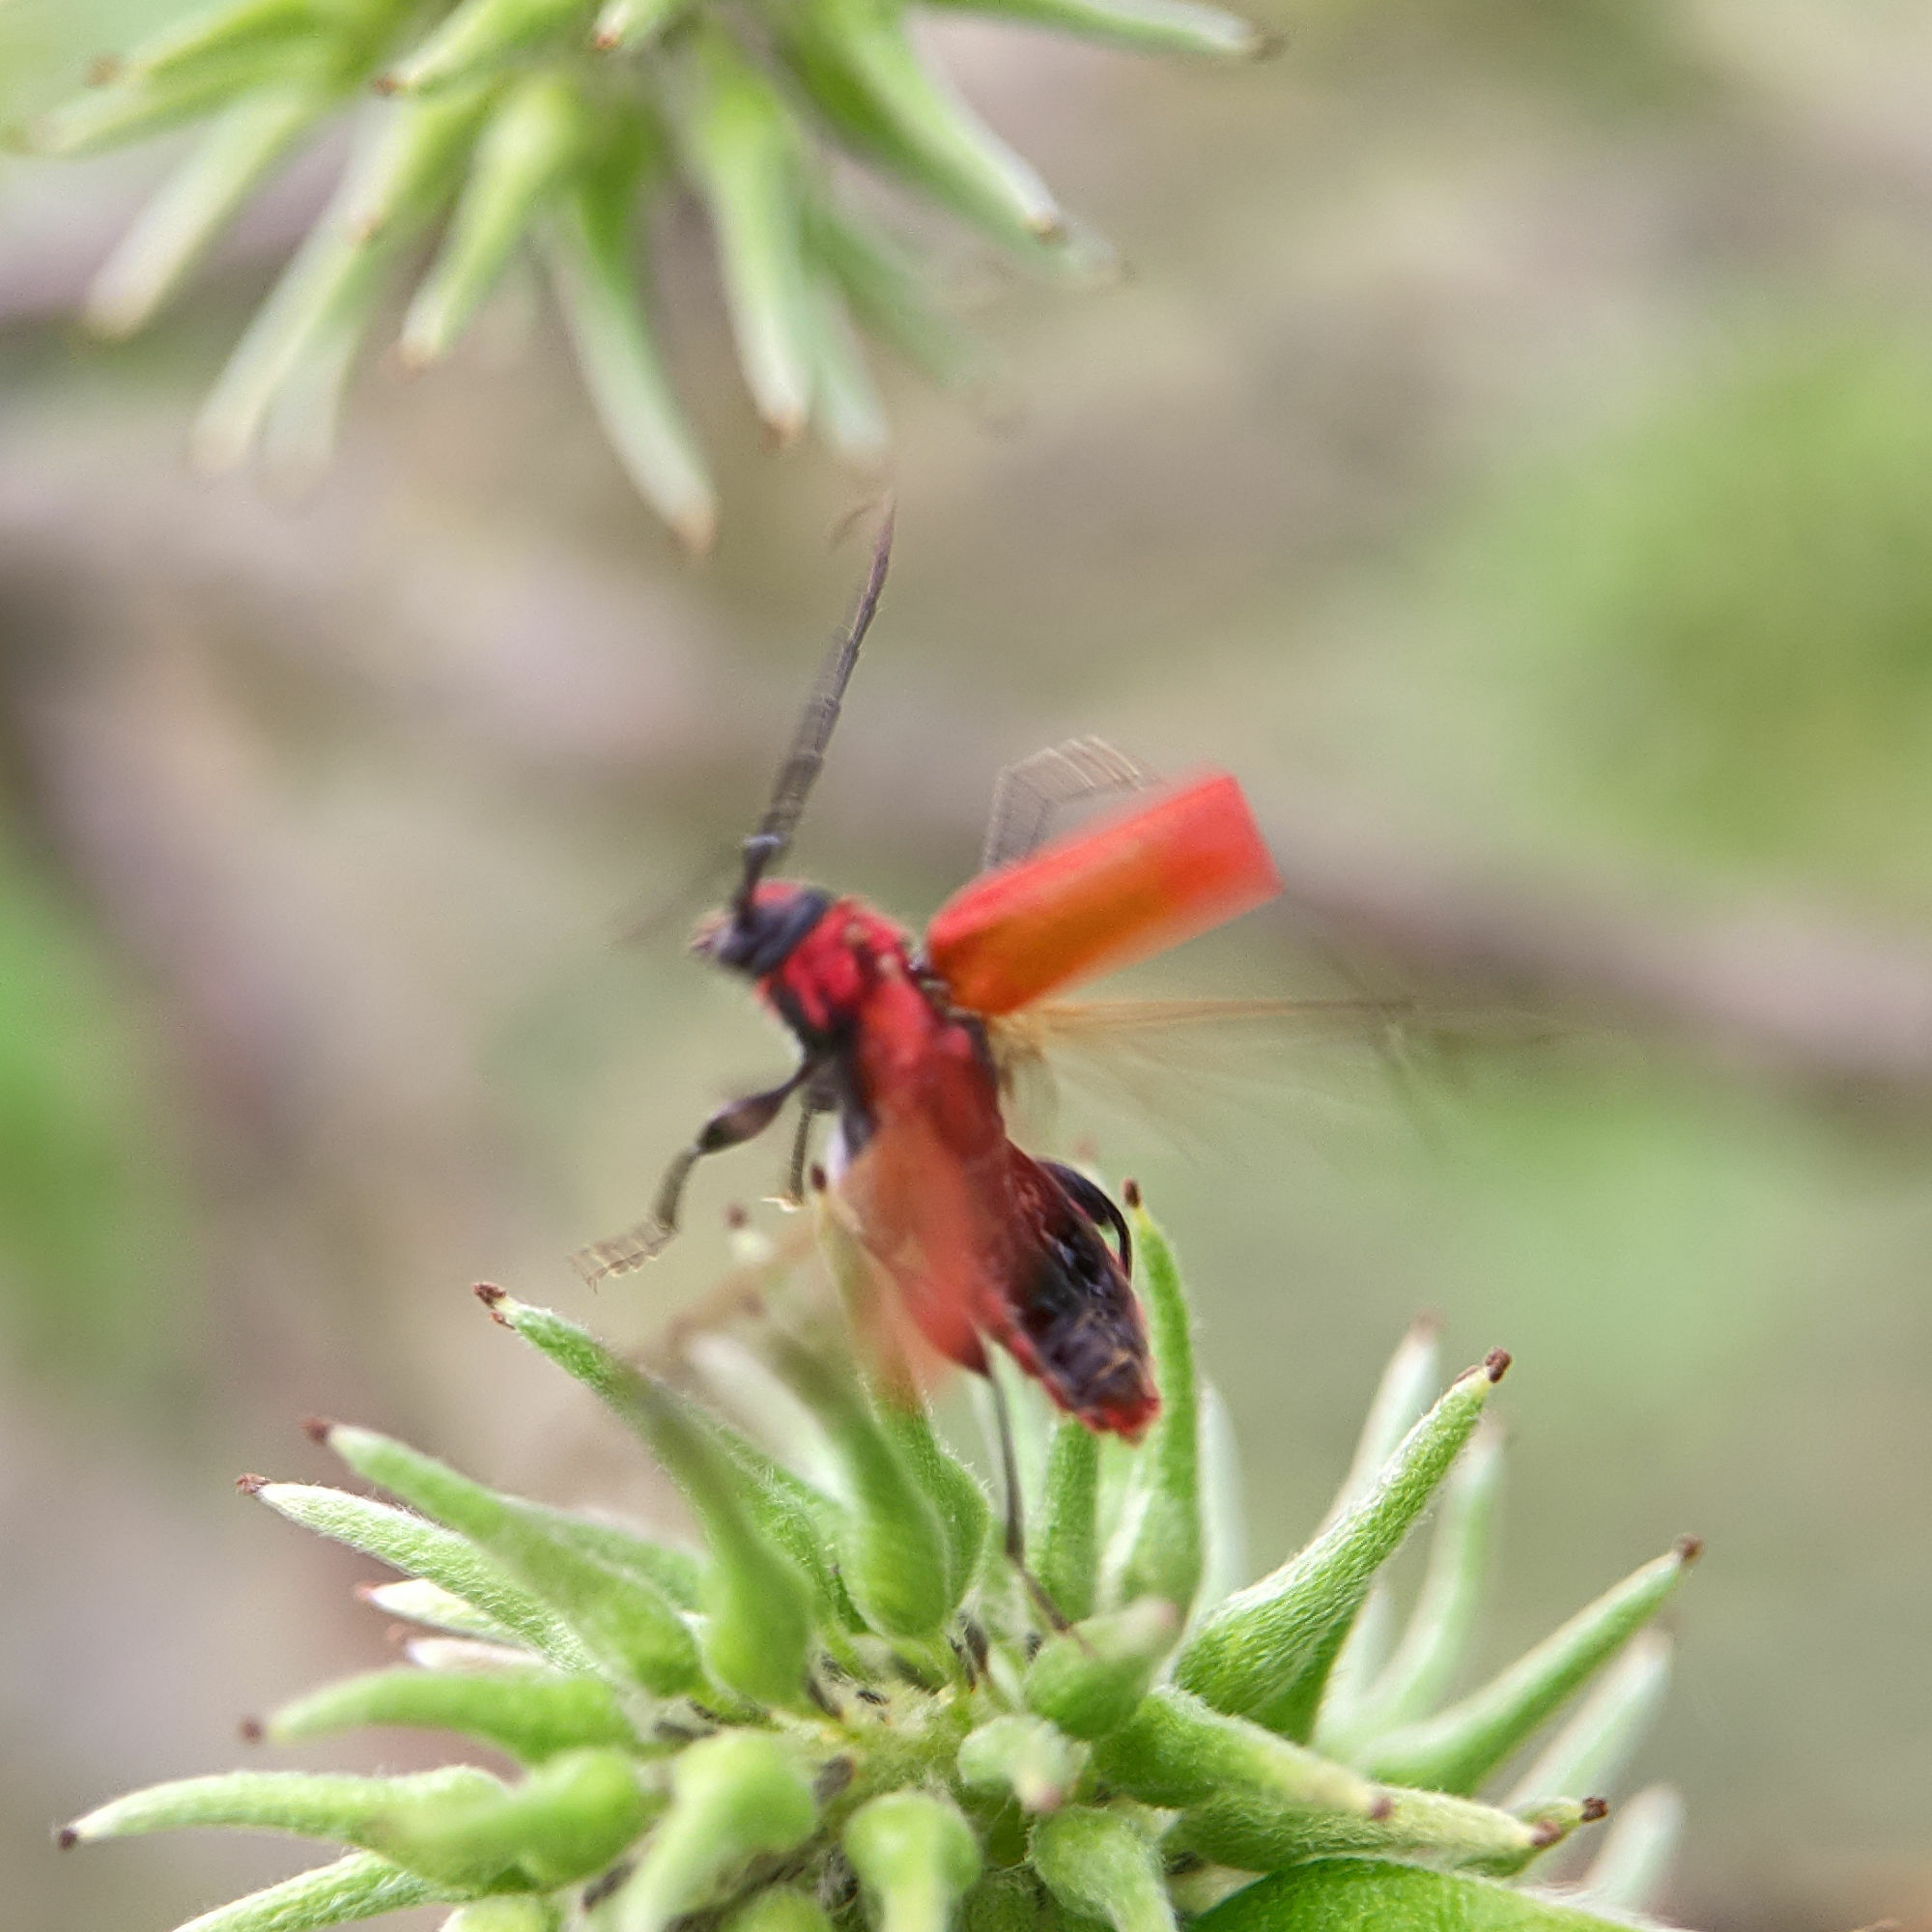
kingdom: Animalia
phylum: Arthropoda
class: Insecta
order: Coleoptera
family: Cerambycidae
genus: Pyrrhidium
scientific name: Pyrrhidium sanguineum
